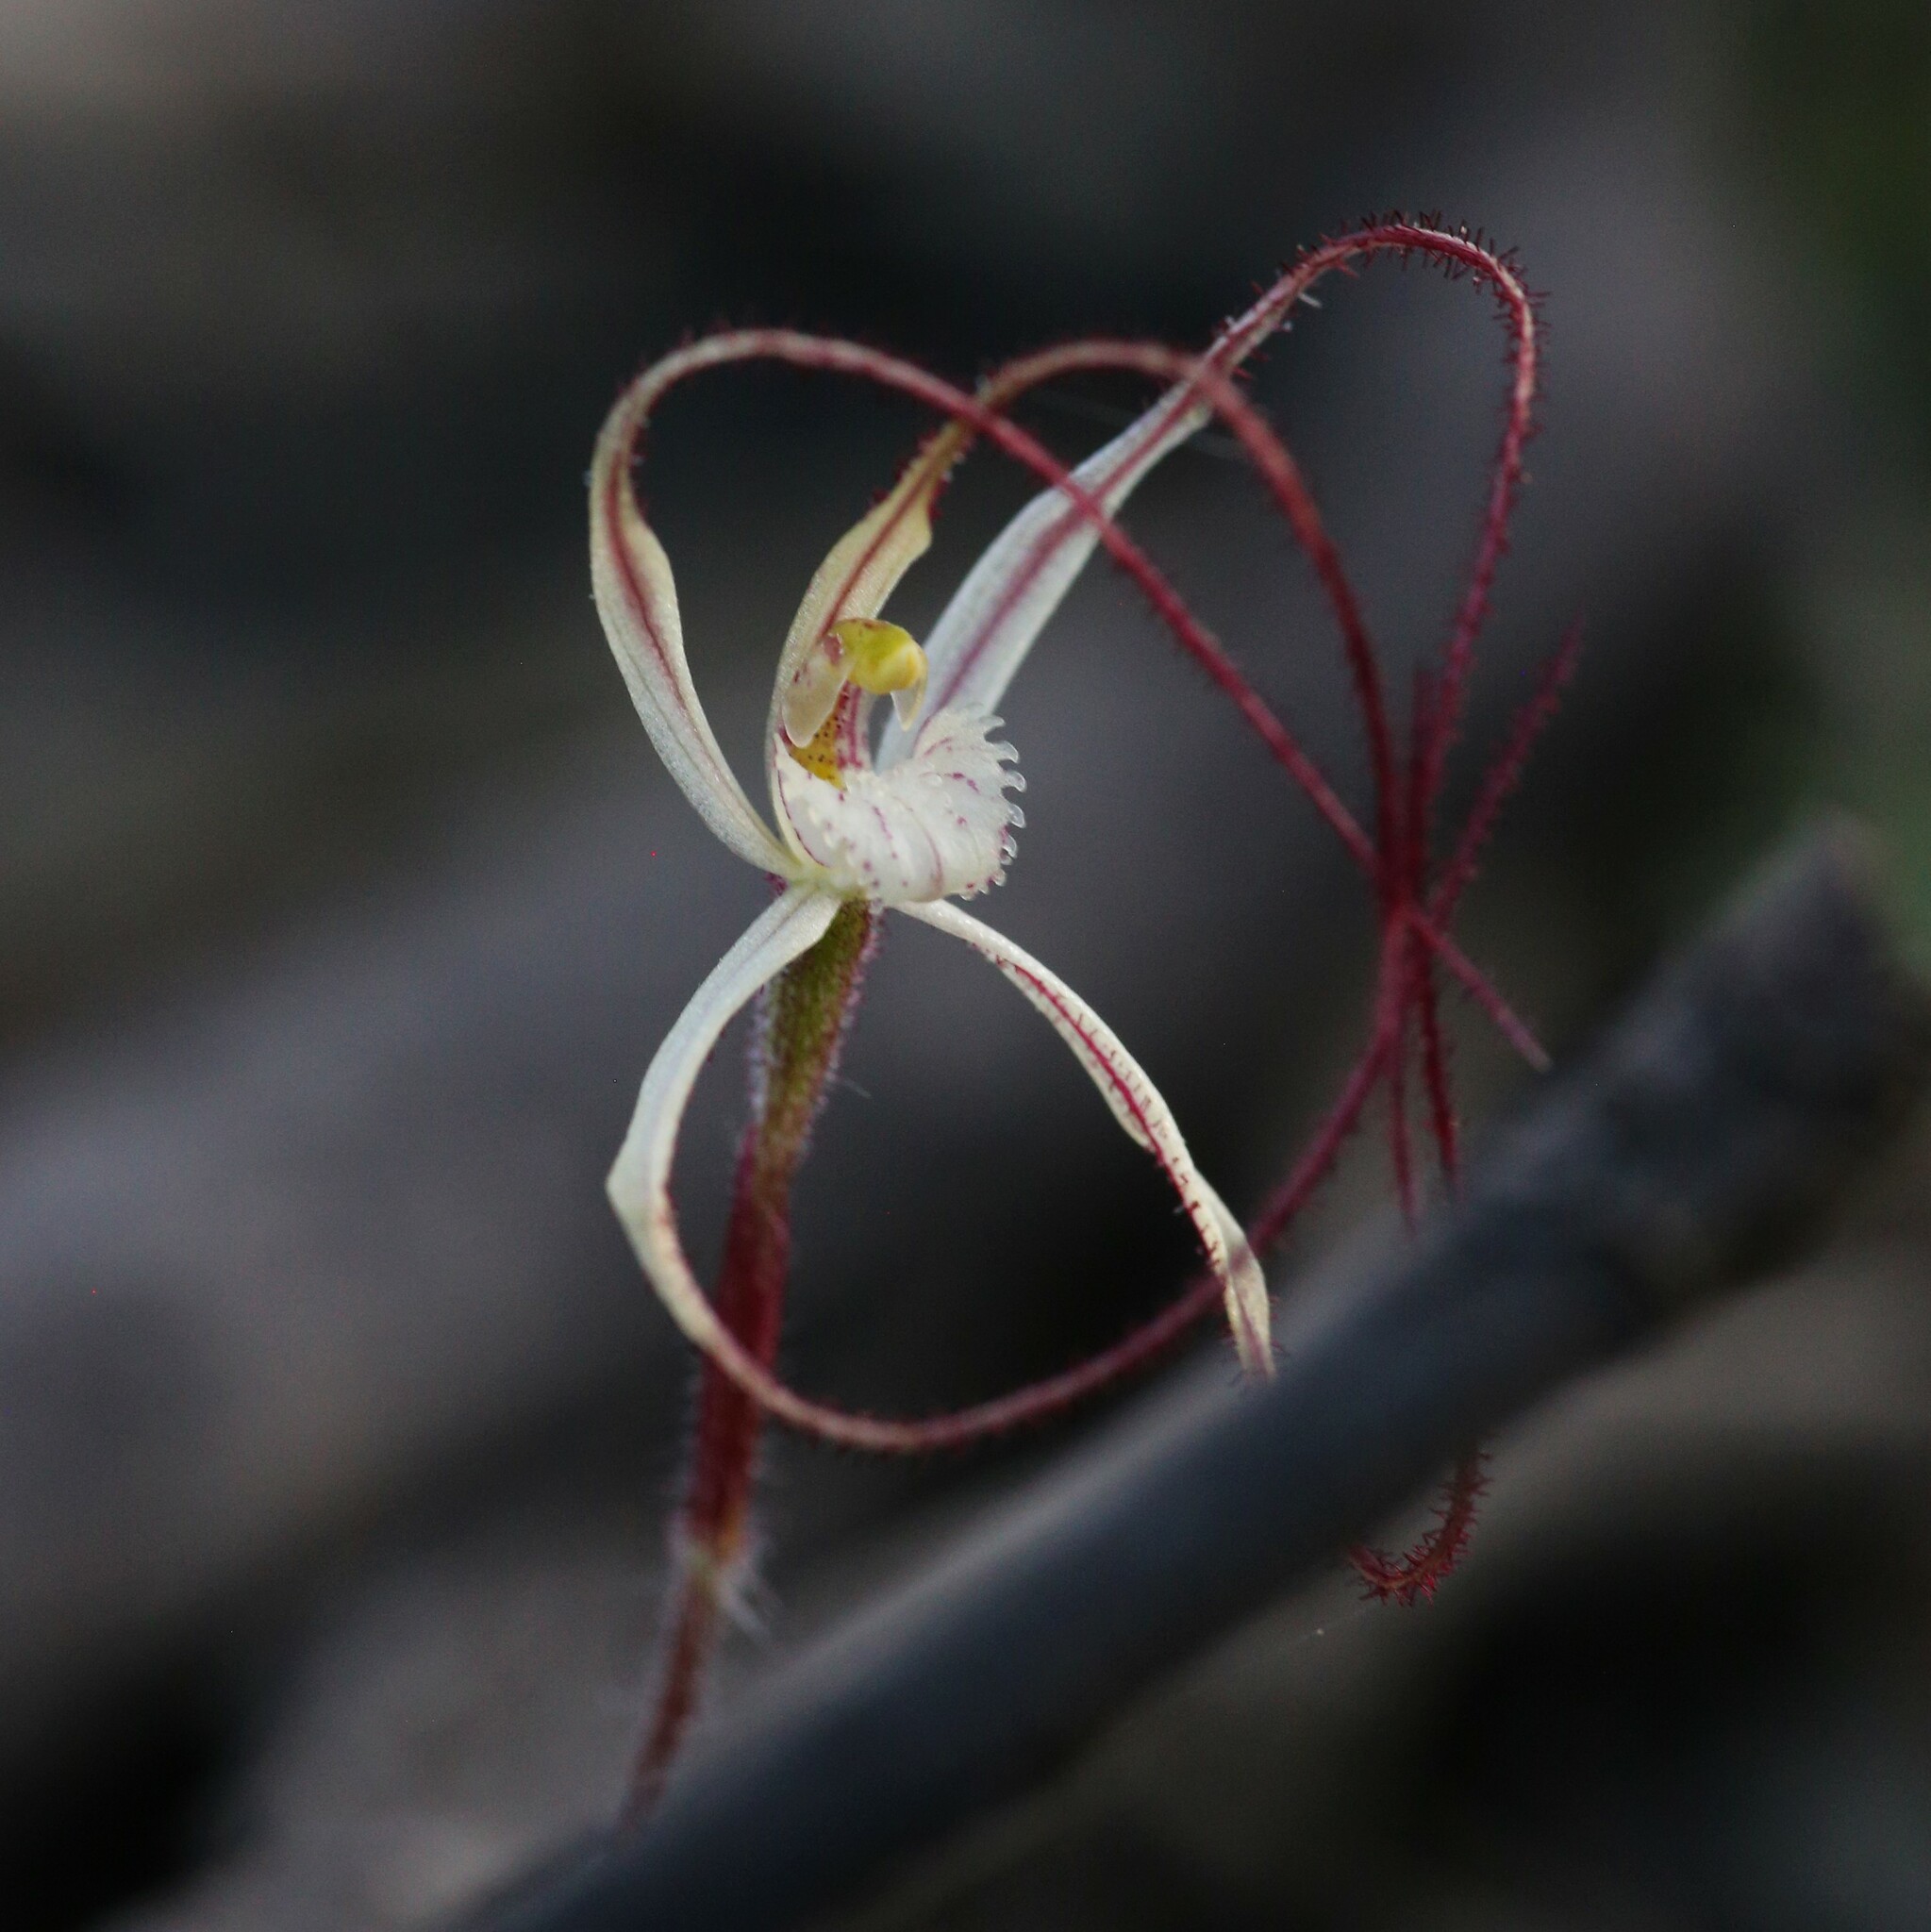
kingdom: Plantae
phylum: Tracheophyta
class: Liliopsida
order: Asparagales
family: Orchidaceae
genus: Caladenia
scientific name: Caladenia microchila
